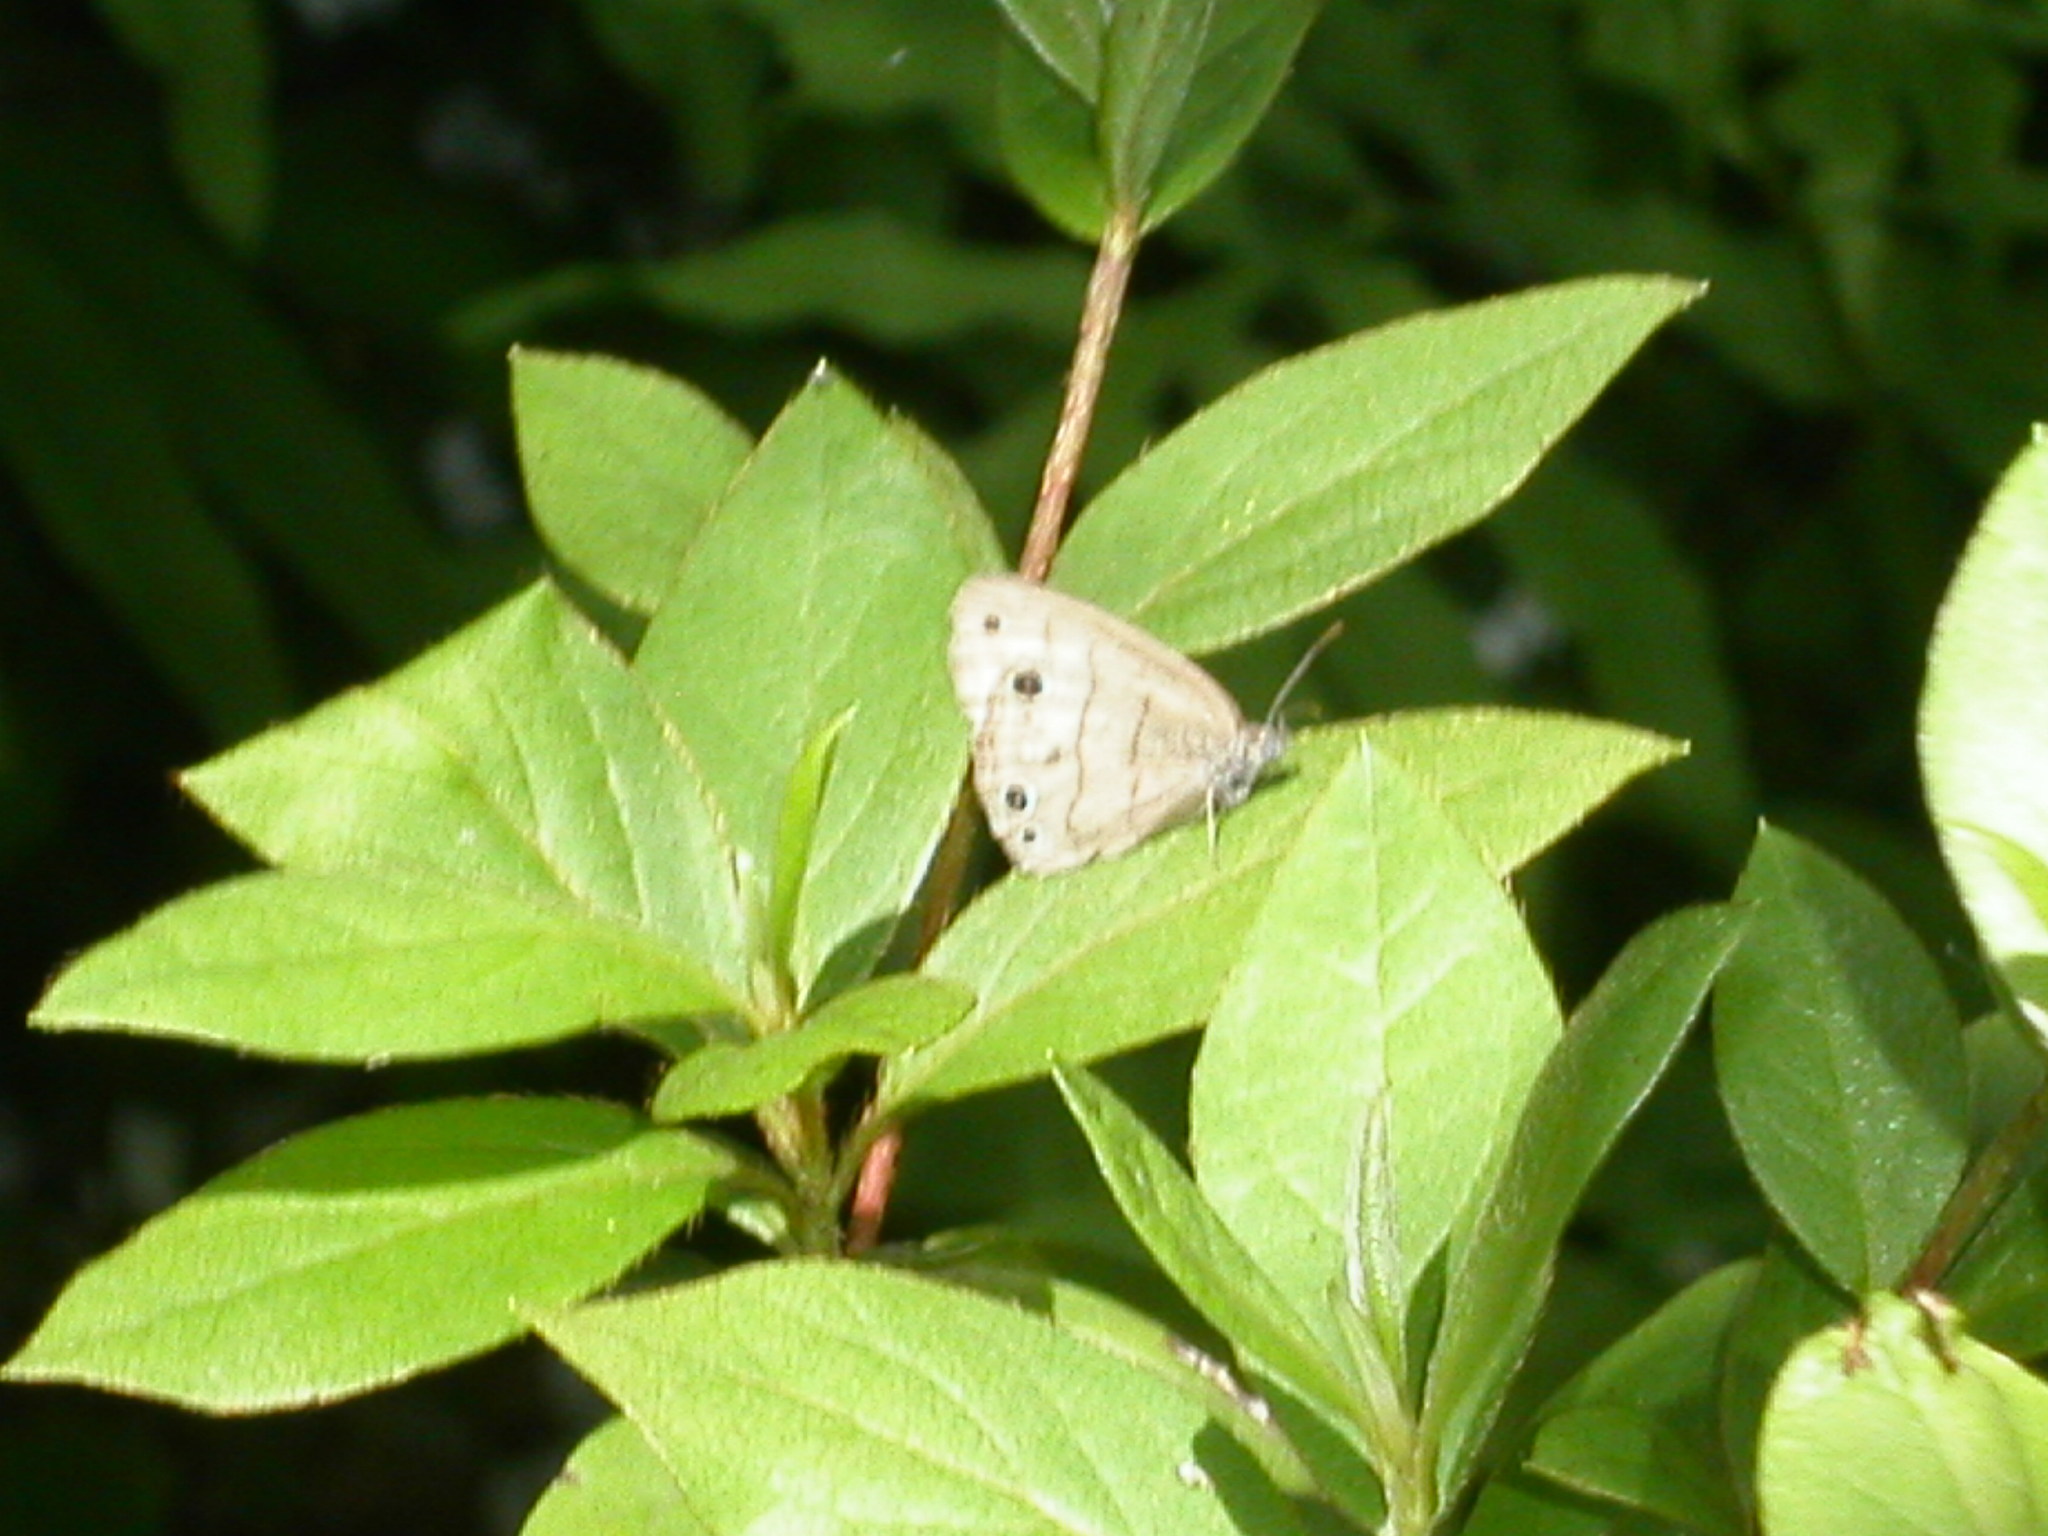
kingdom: Animalia
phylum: Arthropoda
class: Insecta
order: Lepidoptera
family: Nymphalidae
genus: Hermeuptychia
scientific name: Hermeuptychia hermes
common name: Hermes satyr
